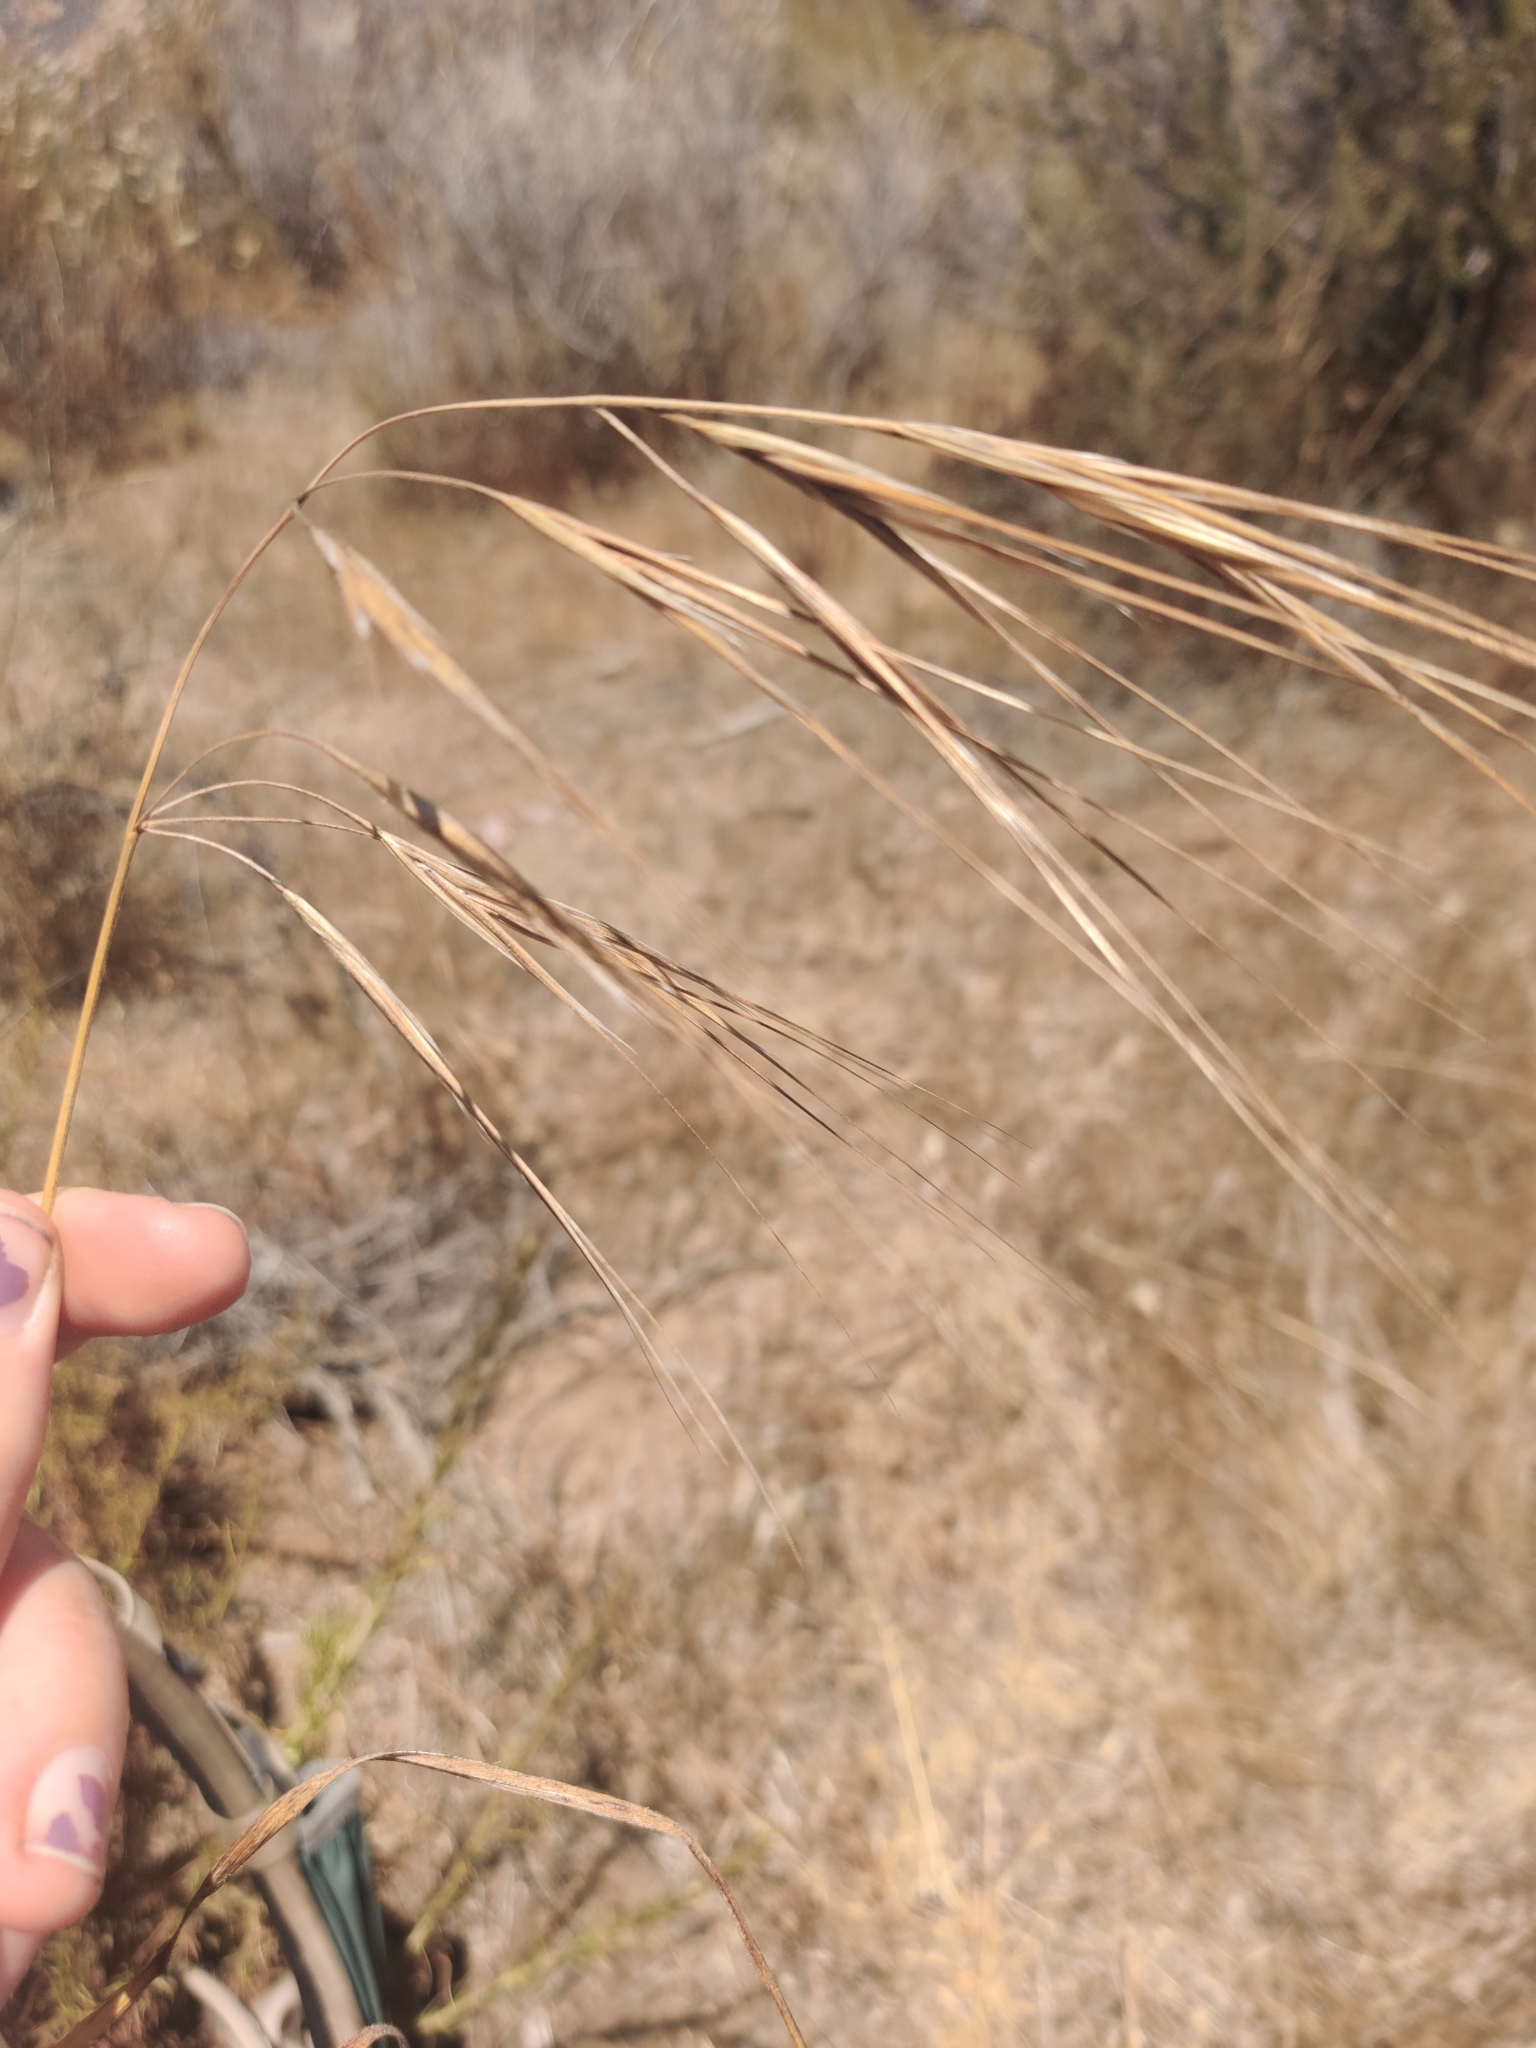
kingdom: Plantae
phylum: Tracheophyta
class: Liliopsida
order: Poales
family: Poaceae
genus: Bromus
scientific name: Bromus diandrus
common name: Ripgut brome
